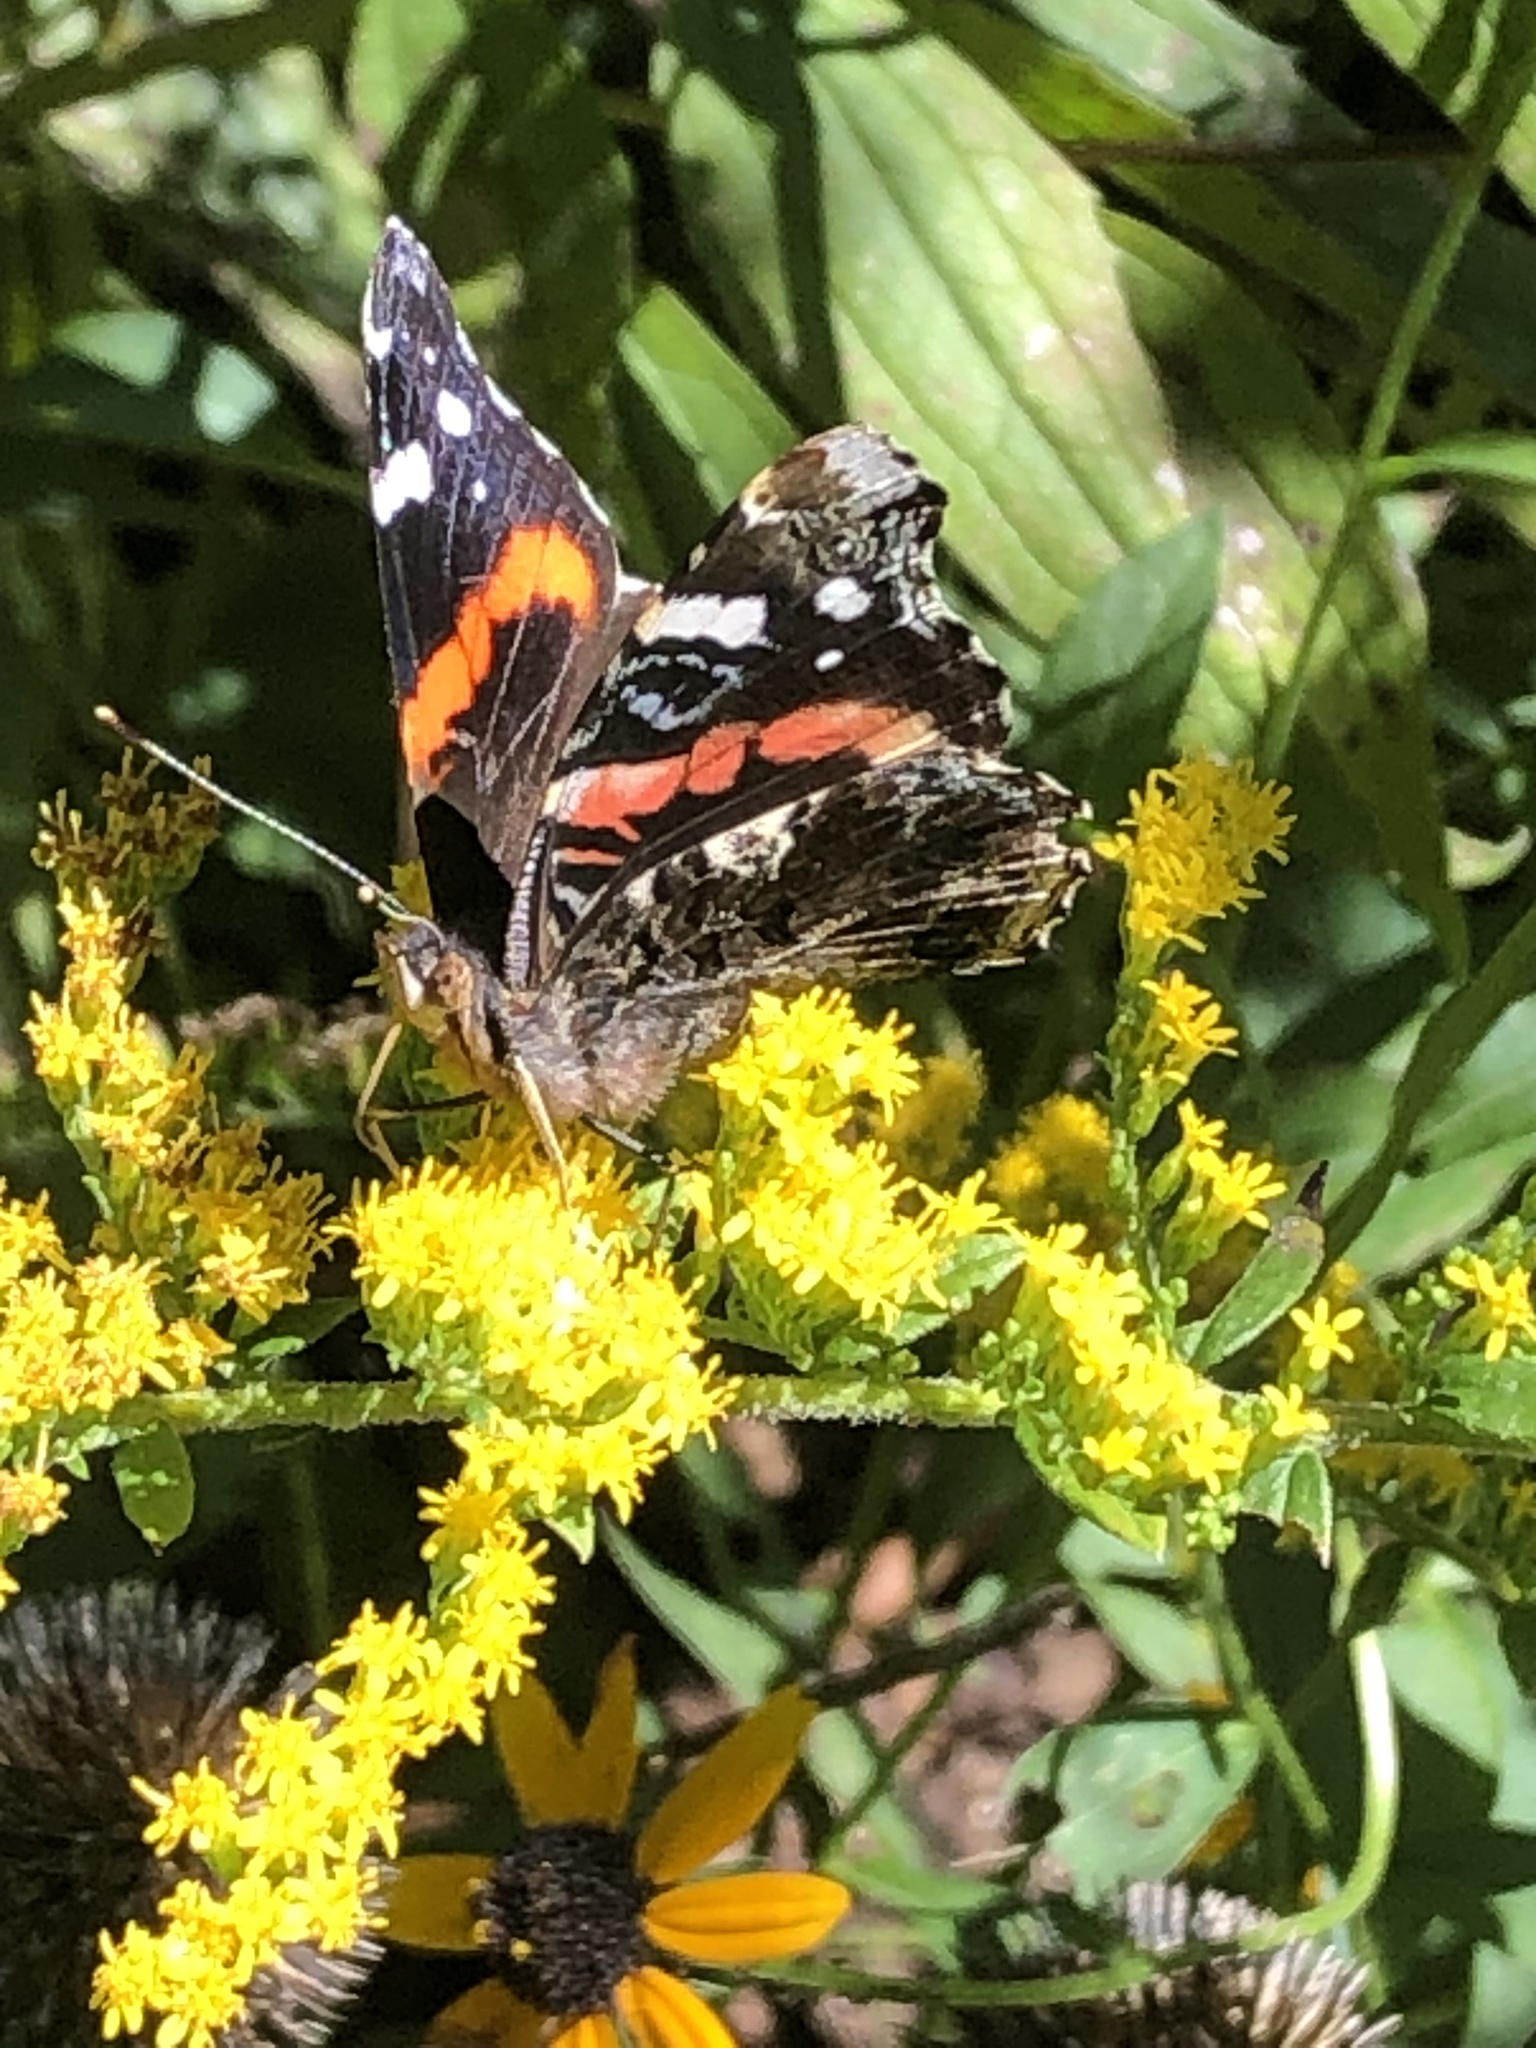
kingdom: Animalia
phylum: Arthropoda
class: Insecta
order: Lepidoptera
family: Nymphalidae
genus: Vanessa
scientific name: Vanessa atalanta
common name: Red admiral
